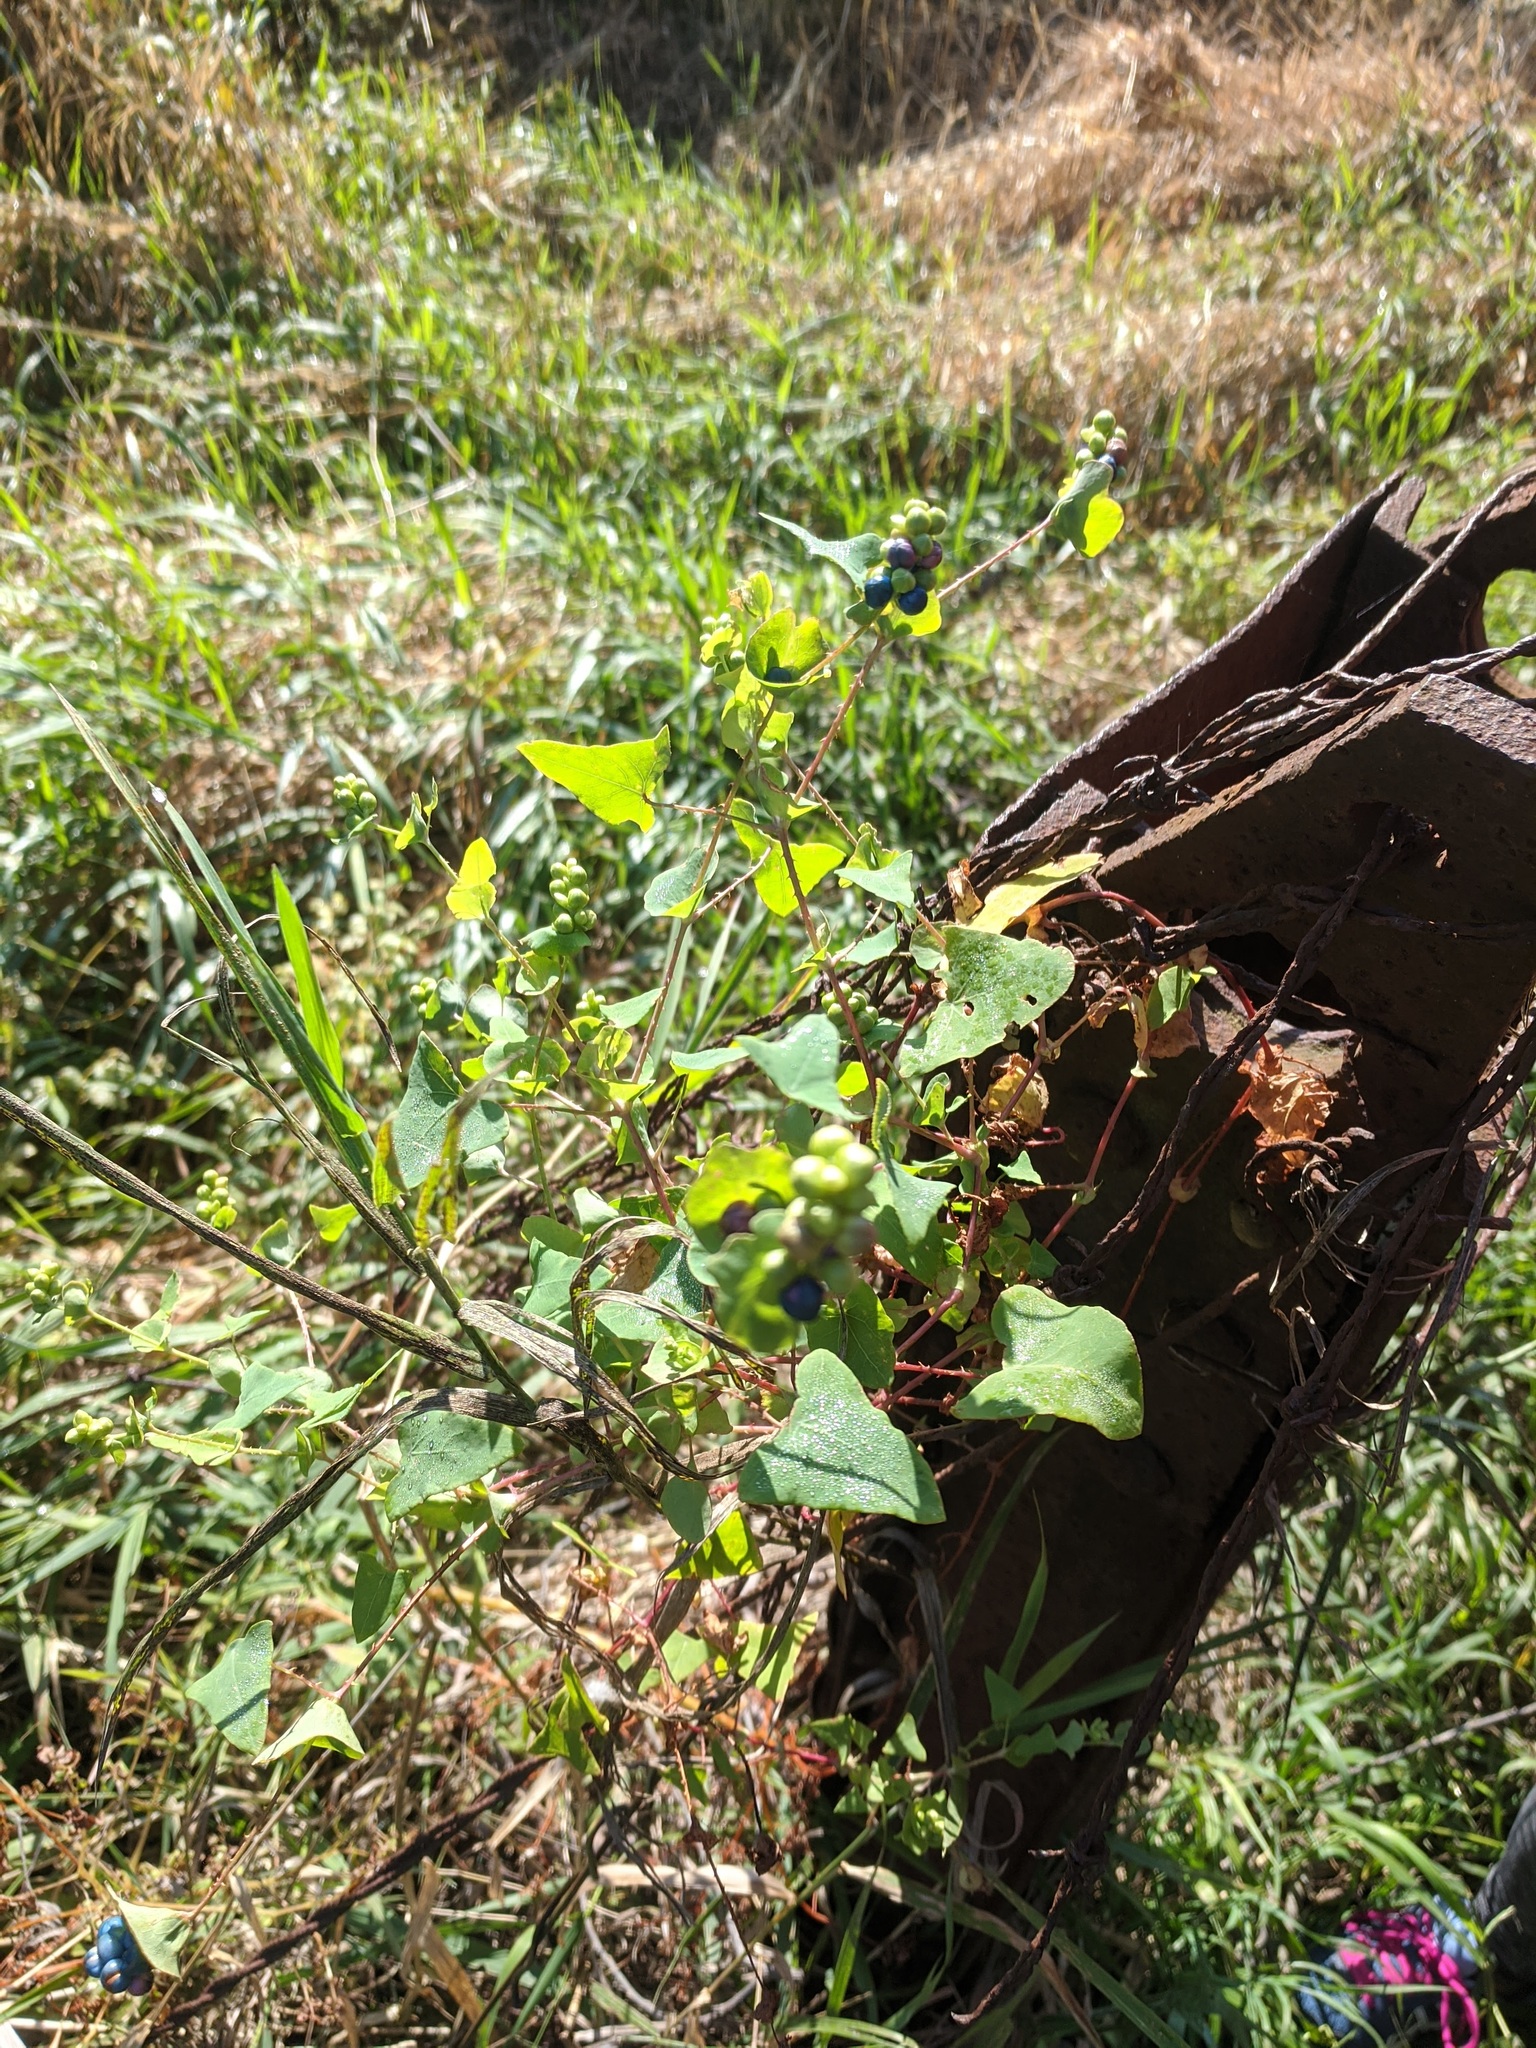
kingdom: Plantae
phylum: Tracheophyta
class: Magnoliopsida
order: Caryophyllales
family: Polygonaceae
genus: Persicaria
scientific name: Persicaria perfoliata
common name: Asiatic tearthumb
